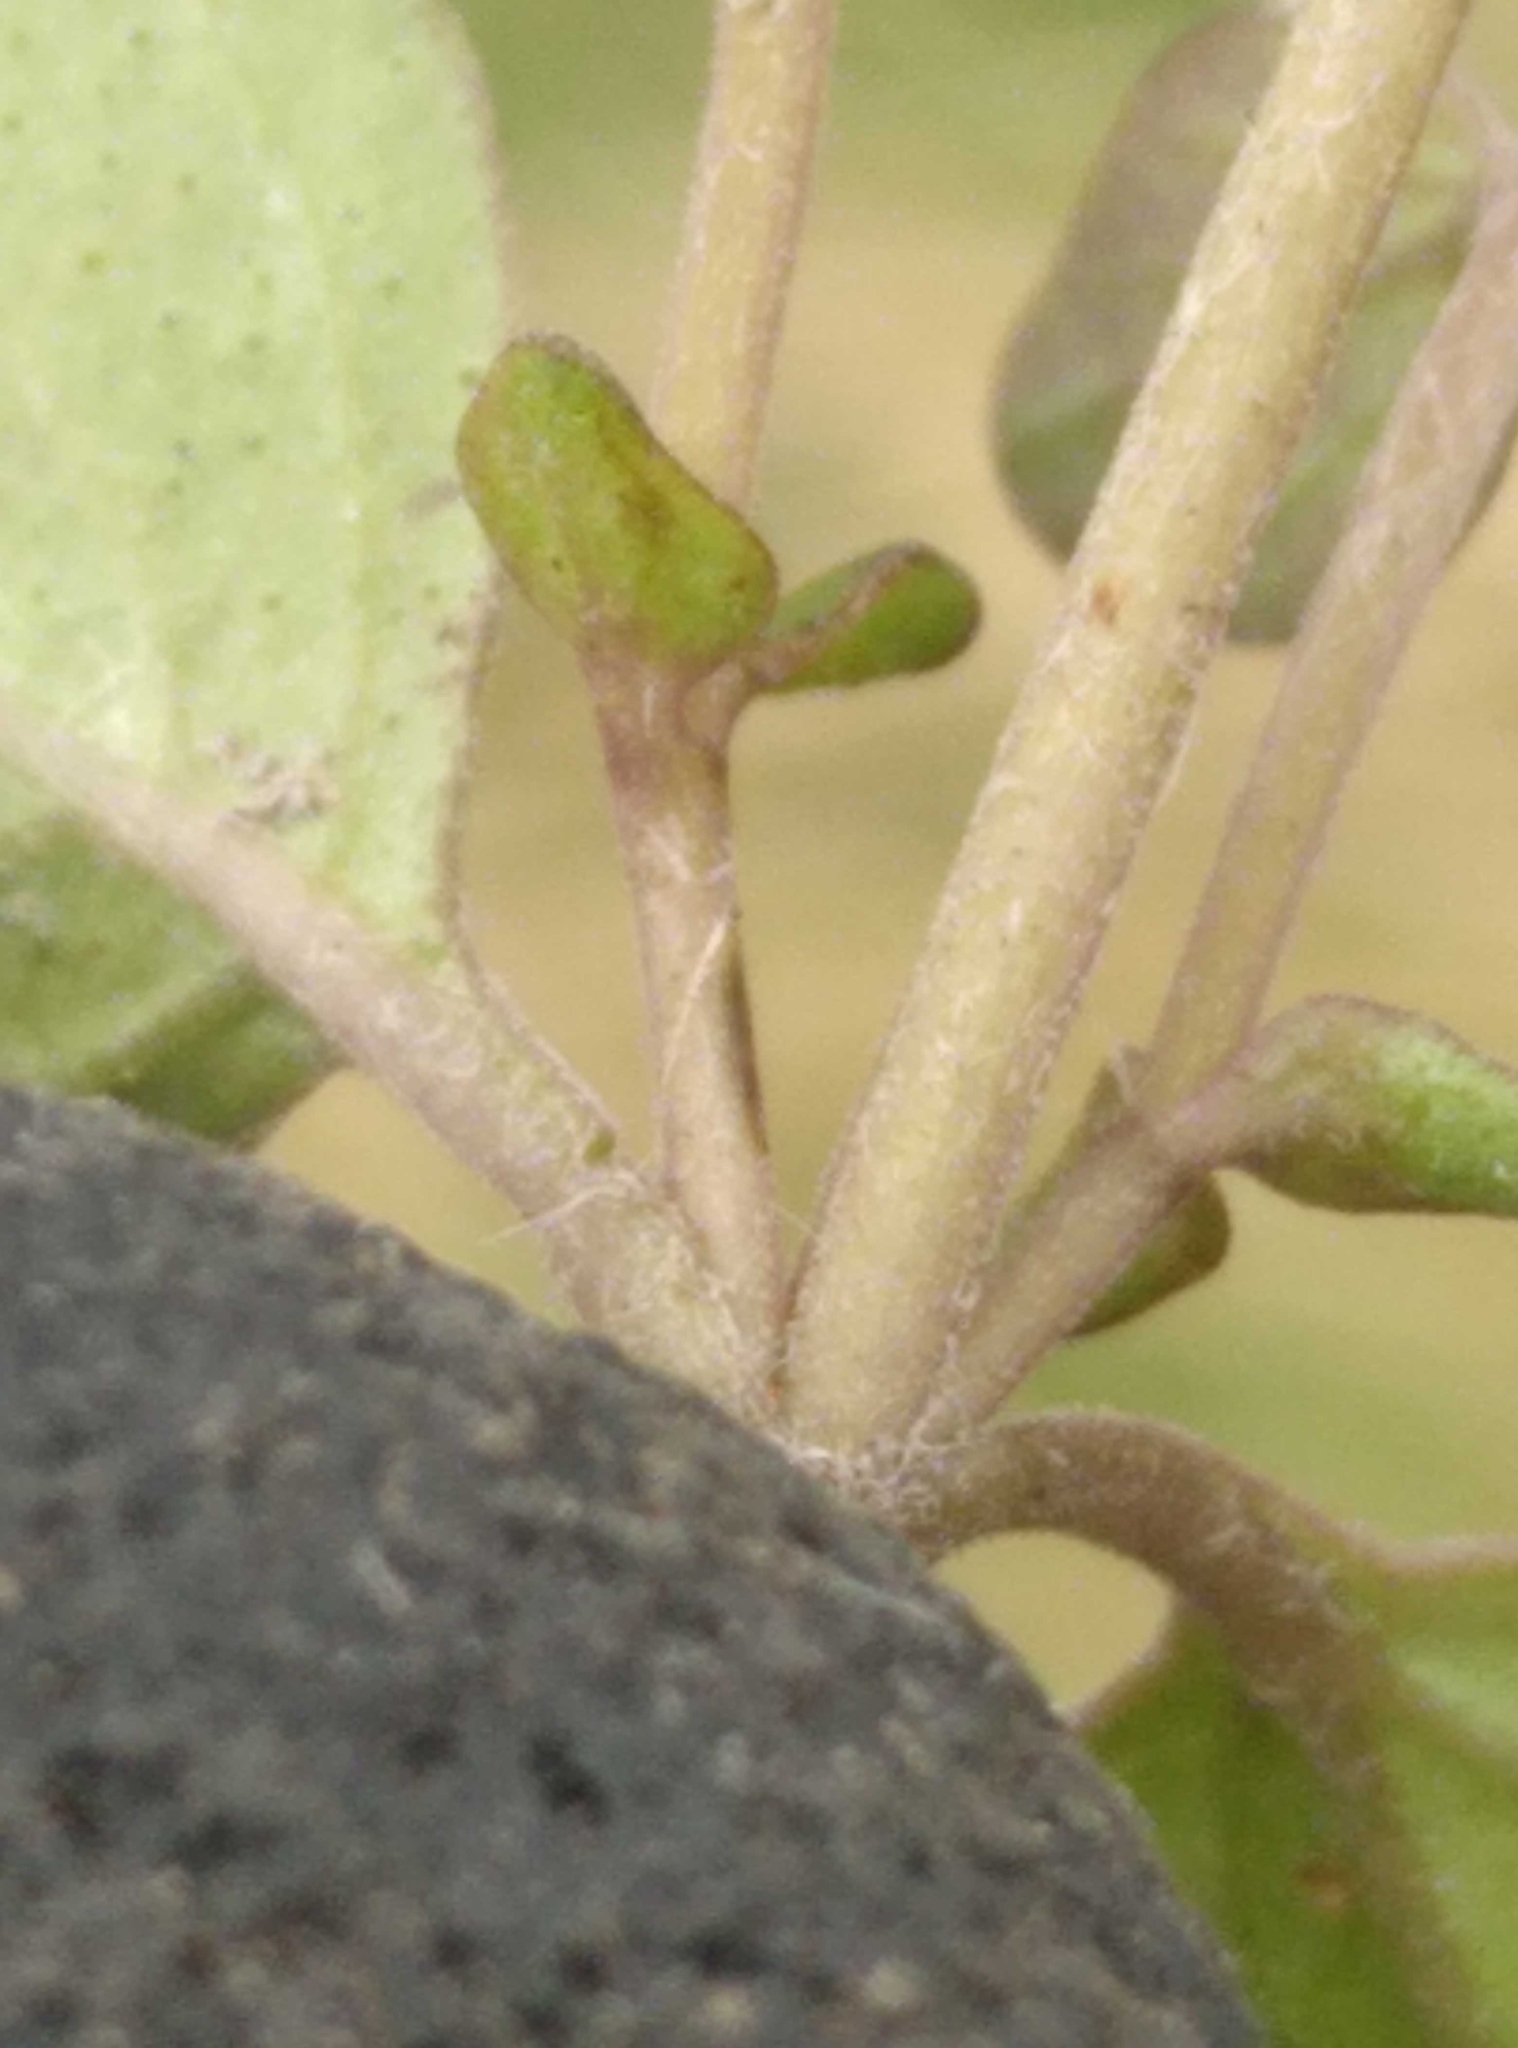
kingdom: Plantae
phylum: Tracheophyta
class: Magnoliopsida
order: Lamiales
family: Lamiaceae
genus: Mentha
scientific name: Mentha cunninghamii
